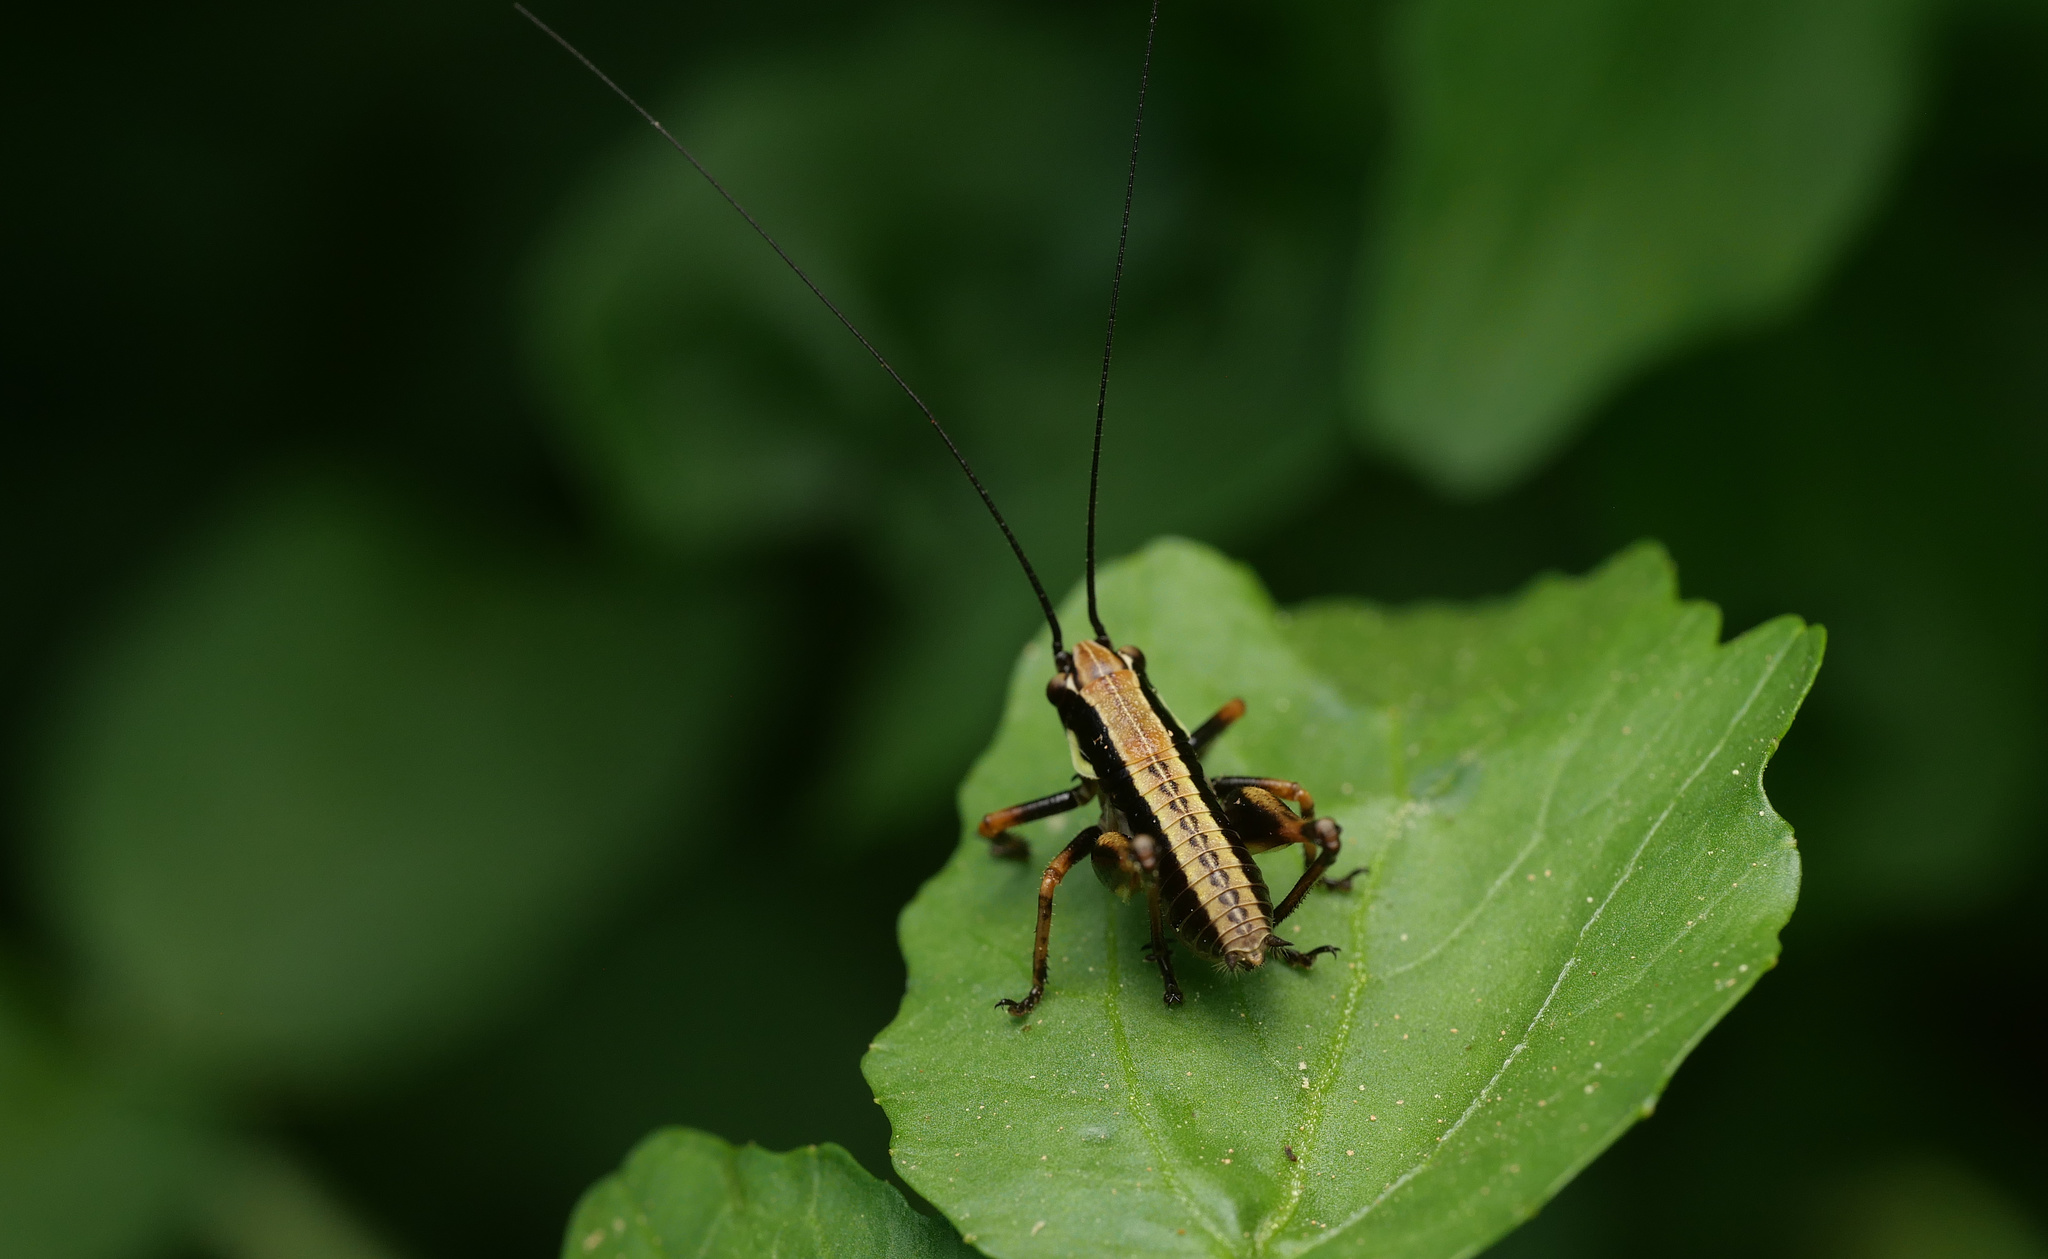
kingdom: Animalia
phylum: Arthropoda
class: Insecta
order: Orthoptera
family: Tettigoniidae
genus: Eupholidoptera
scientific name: Eupholidoptera
